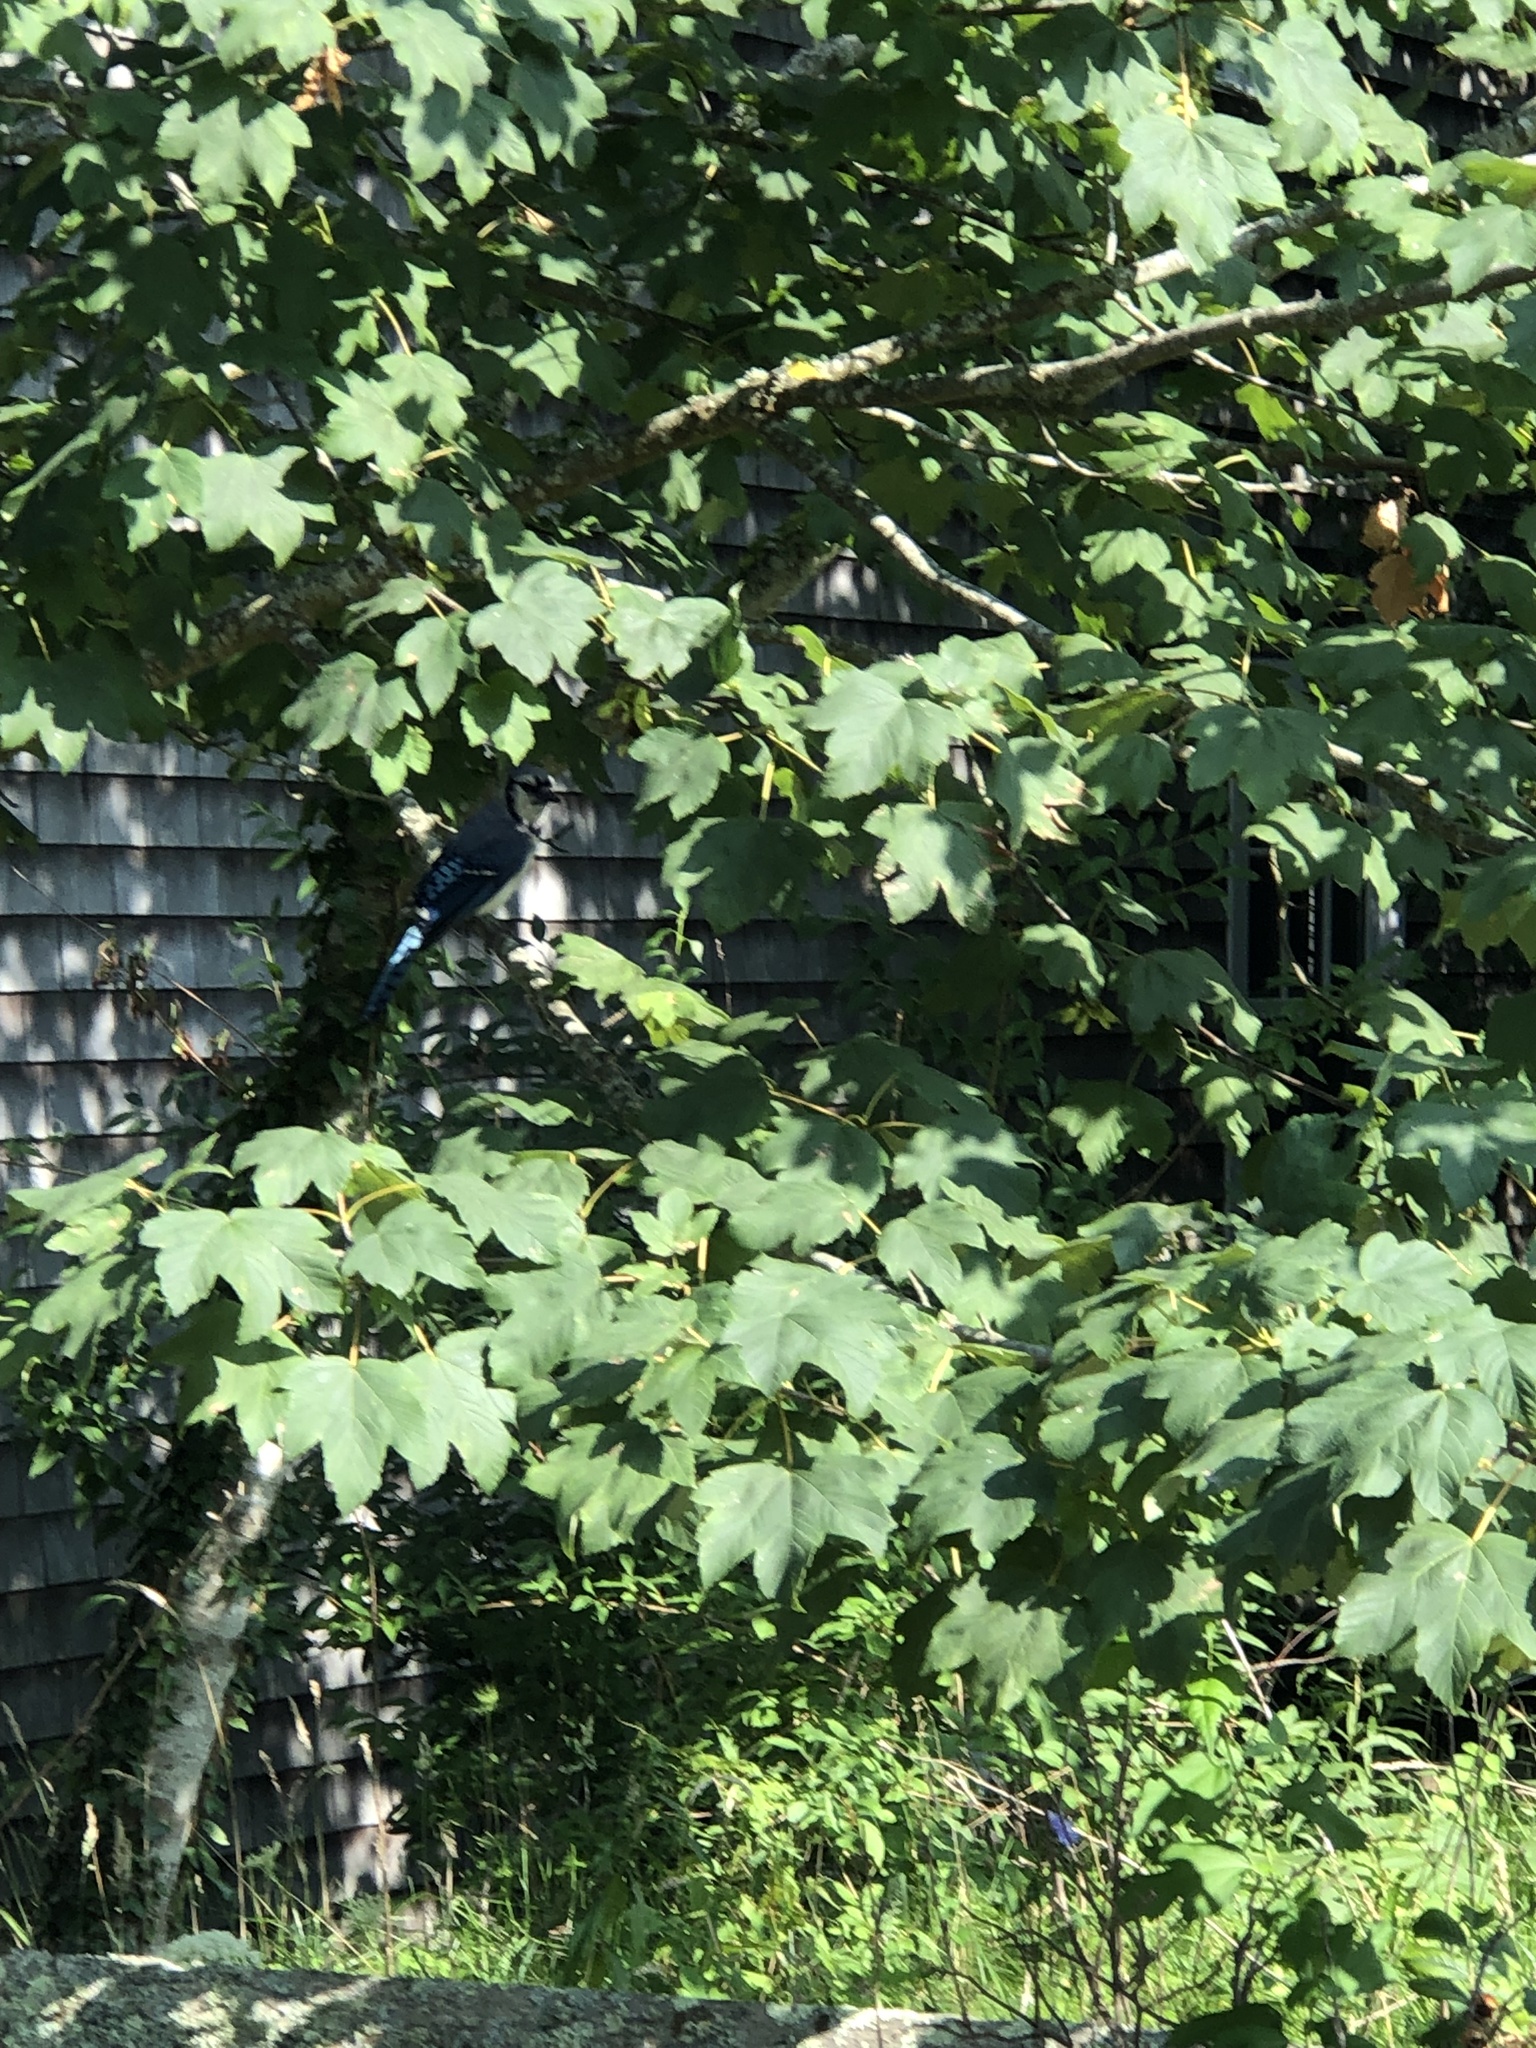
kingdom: Animalia
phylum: Chordata
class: Aves
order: Passeriformes
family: Corvidae
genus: Cyanocitta
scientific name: Cyanocitta cristata
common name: Blue jay
